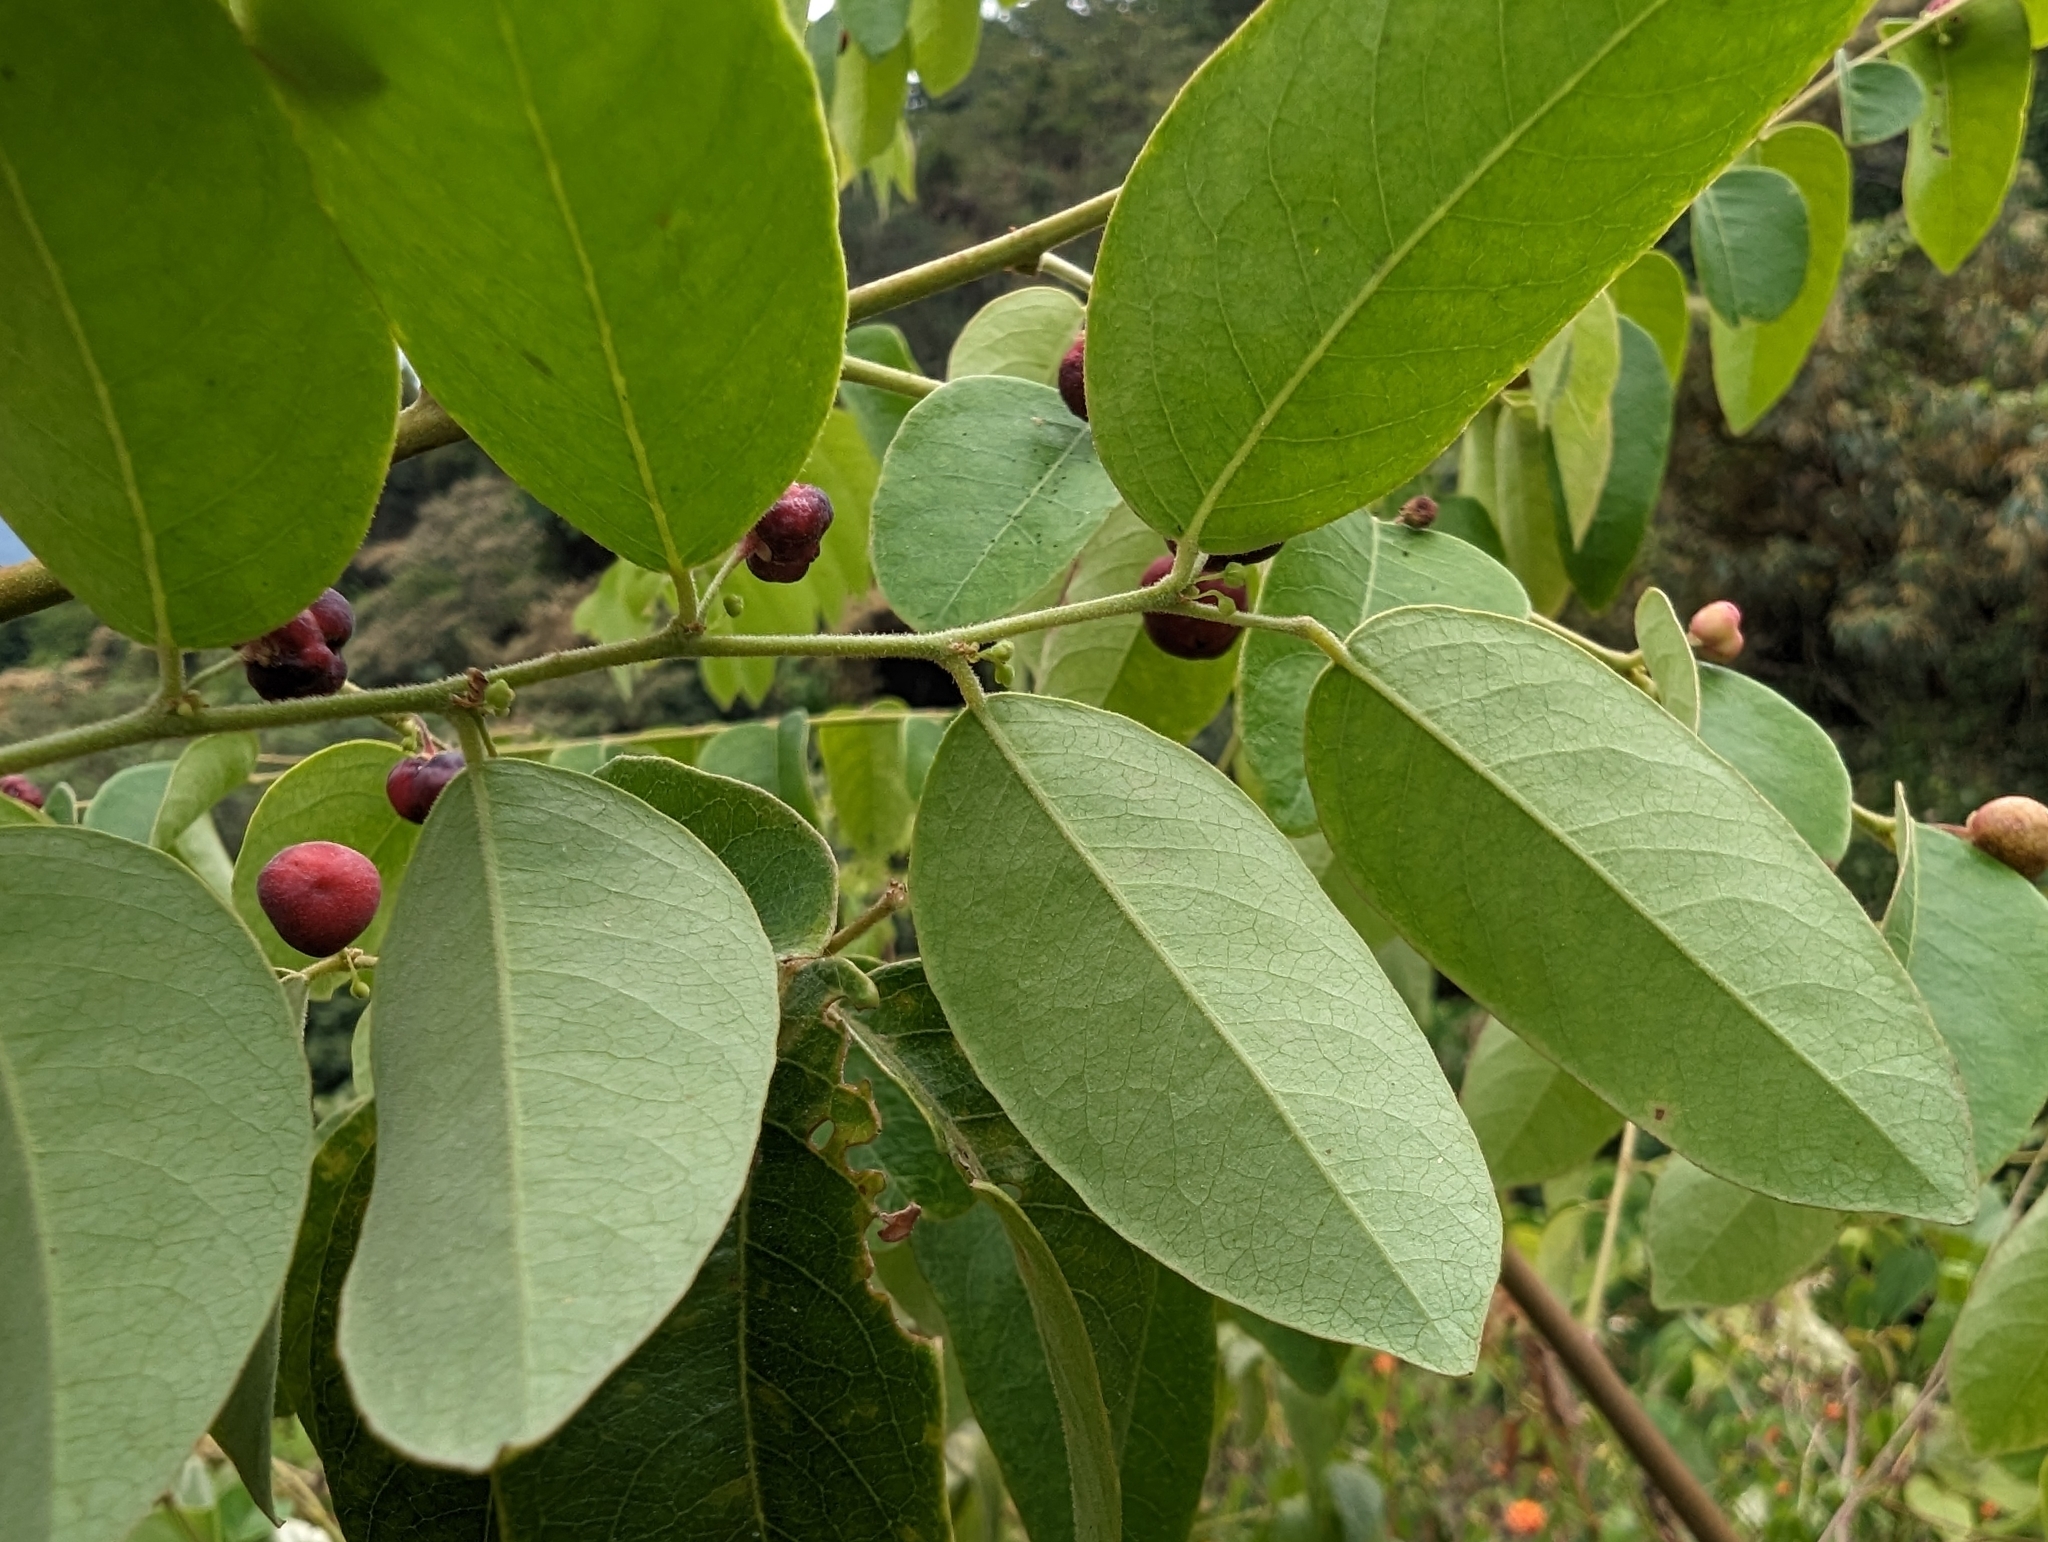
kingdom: Plantae
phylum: Tracheophyta
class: Magnoliopsida
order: Malpighiales
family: Phyllanthaceae
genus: Phyllanthus
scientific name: Phyllanthus reticulatus
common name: Potato bush
